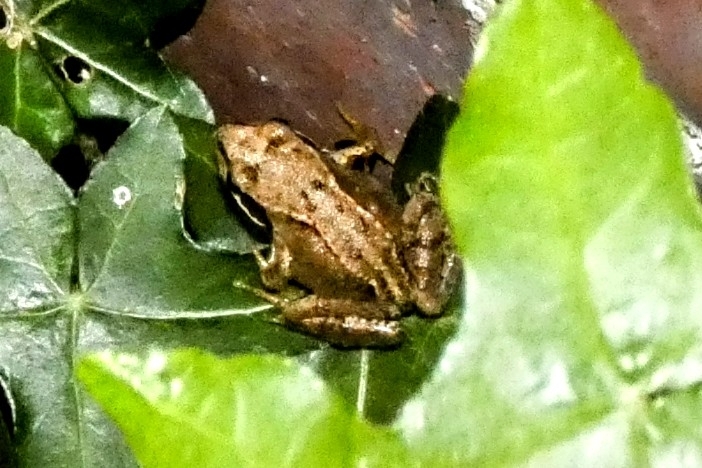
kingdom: Animalia
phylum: Chordata
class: Amphibia
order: Anura
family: Ranidae
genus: Rana
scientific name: Rana temporaria
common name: Common frog
